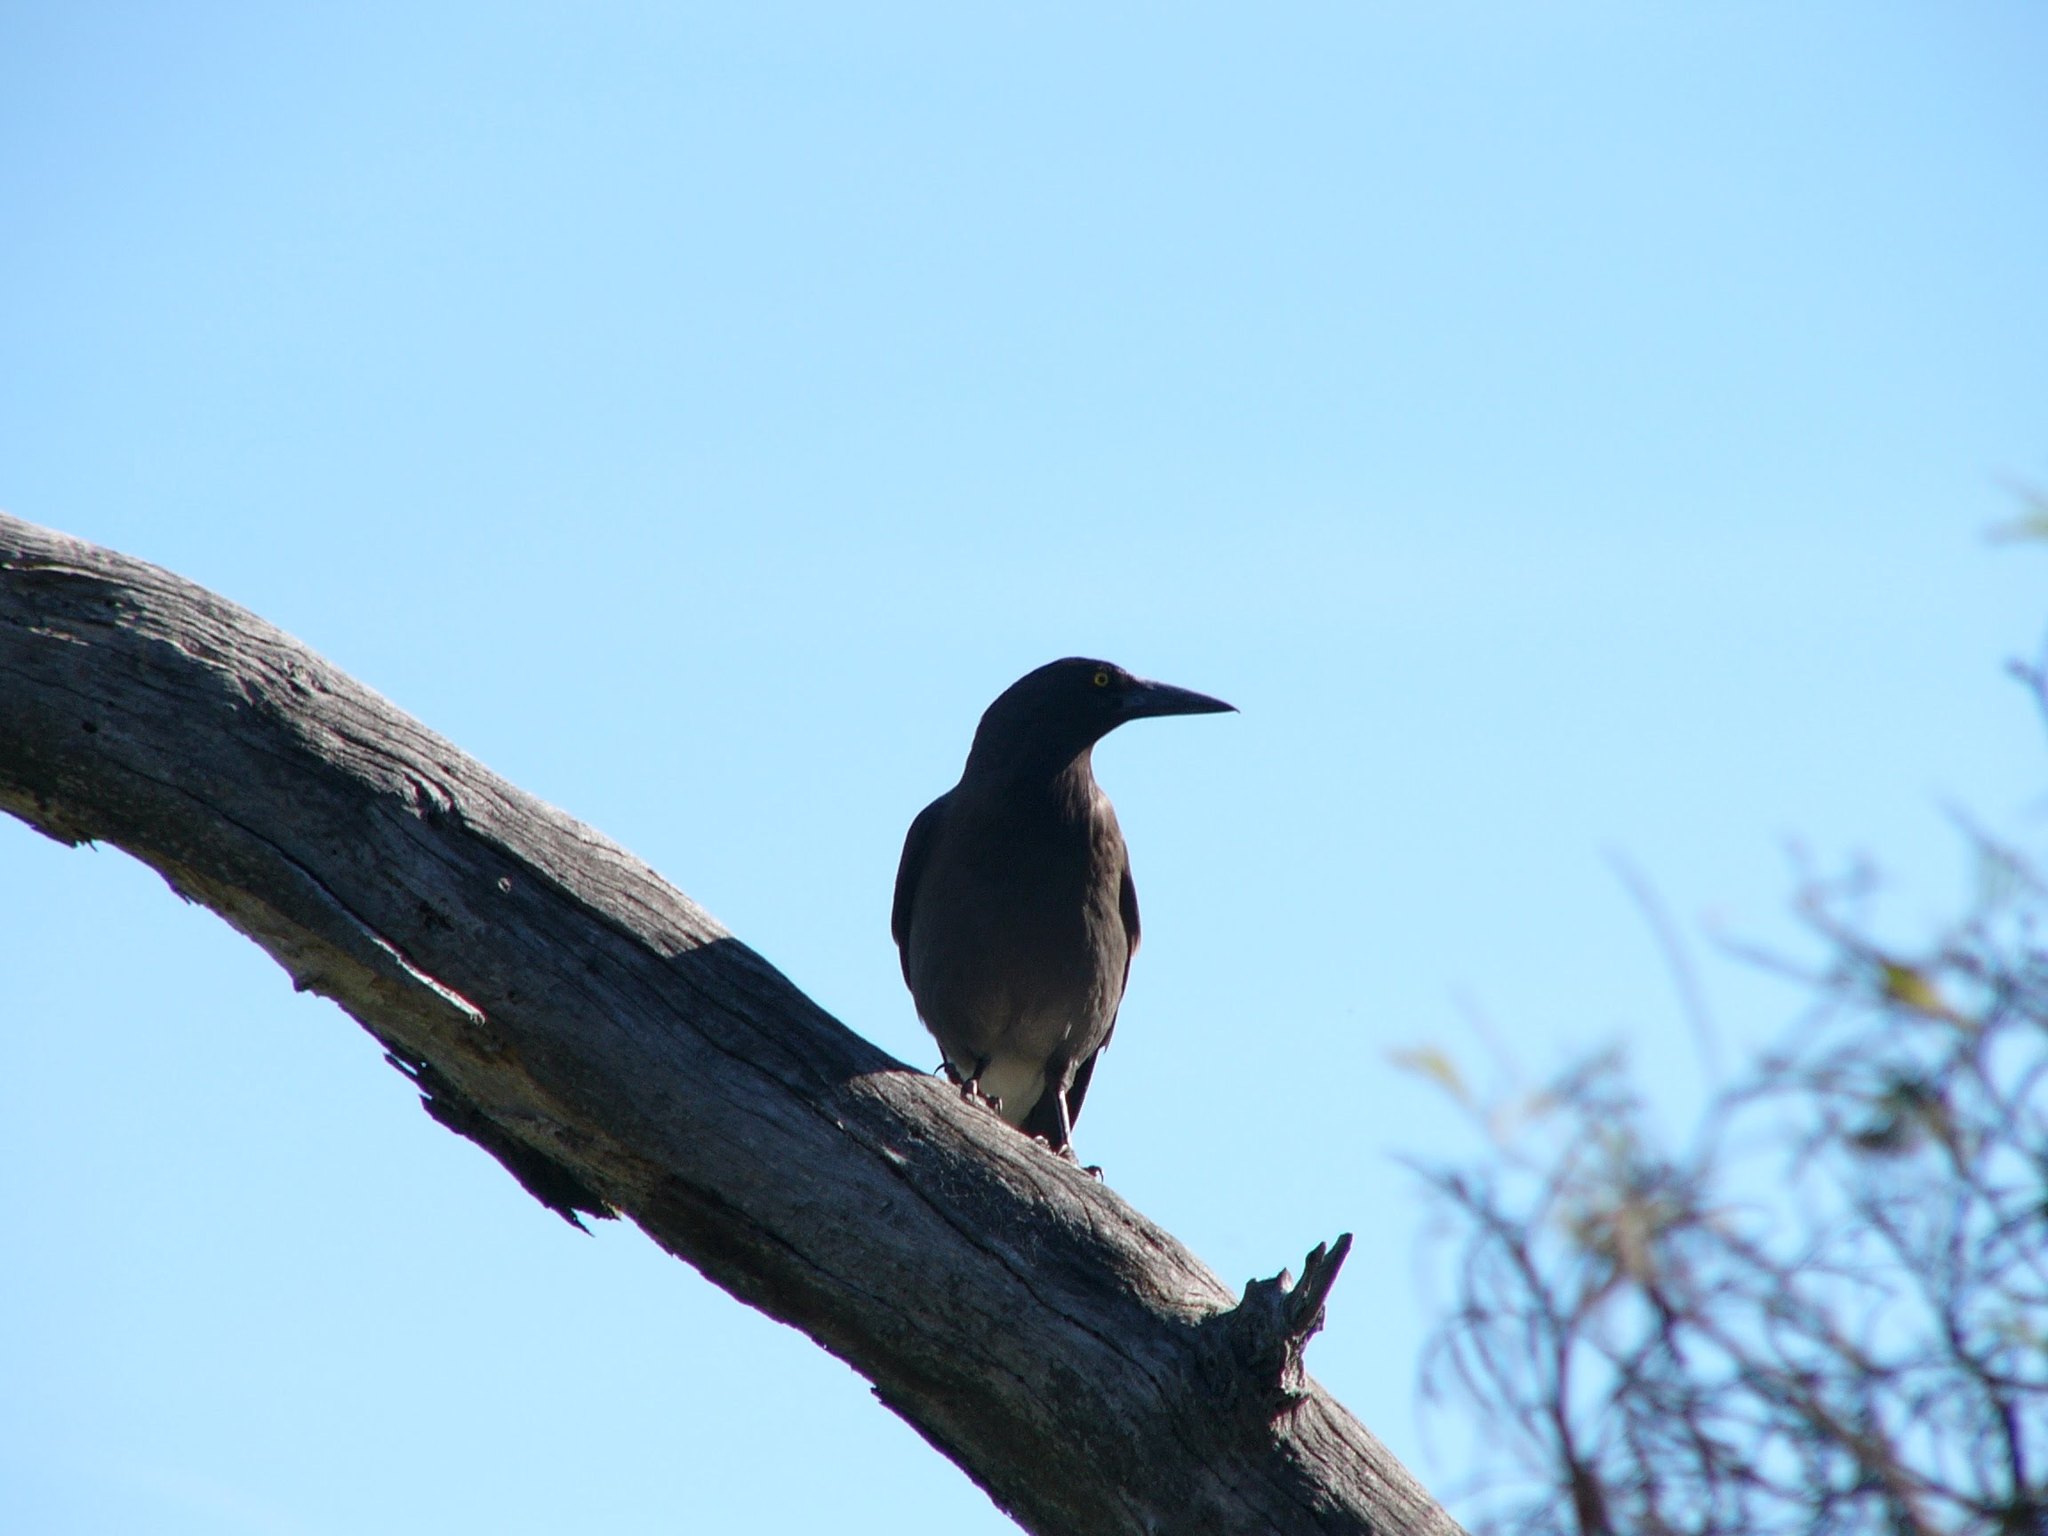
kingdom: Animalia
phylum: Chordata
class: Aves
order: Passeriformes
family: Cracticidae
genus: Strepera
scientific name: Strepera versicolor
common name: Grey currawong
